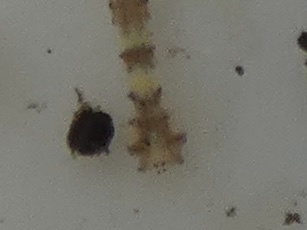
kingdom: Animalia
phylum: Annelida
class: Clitellata
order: Rhynchobdellida
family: Glossiphoniidae
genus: Hemiclepsis
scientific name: Hemiclepsis marginata
